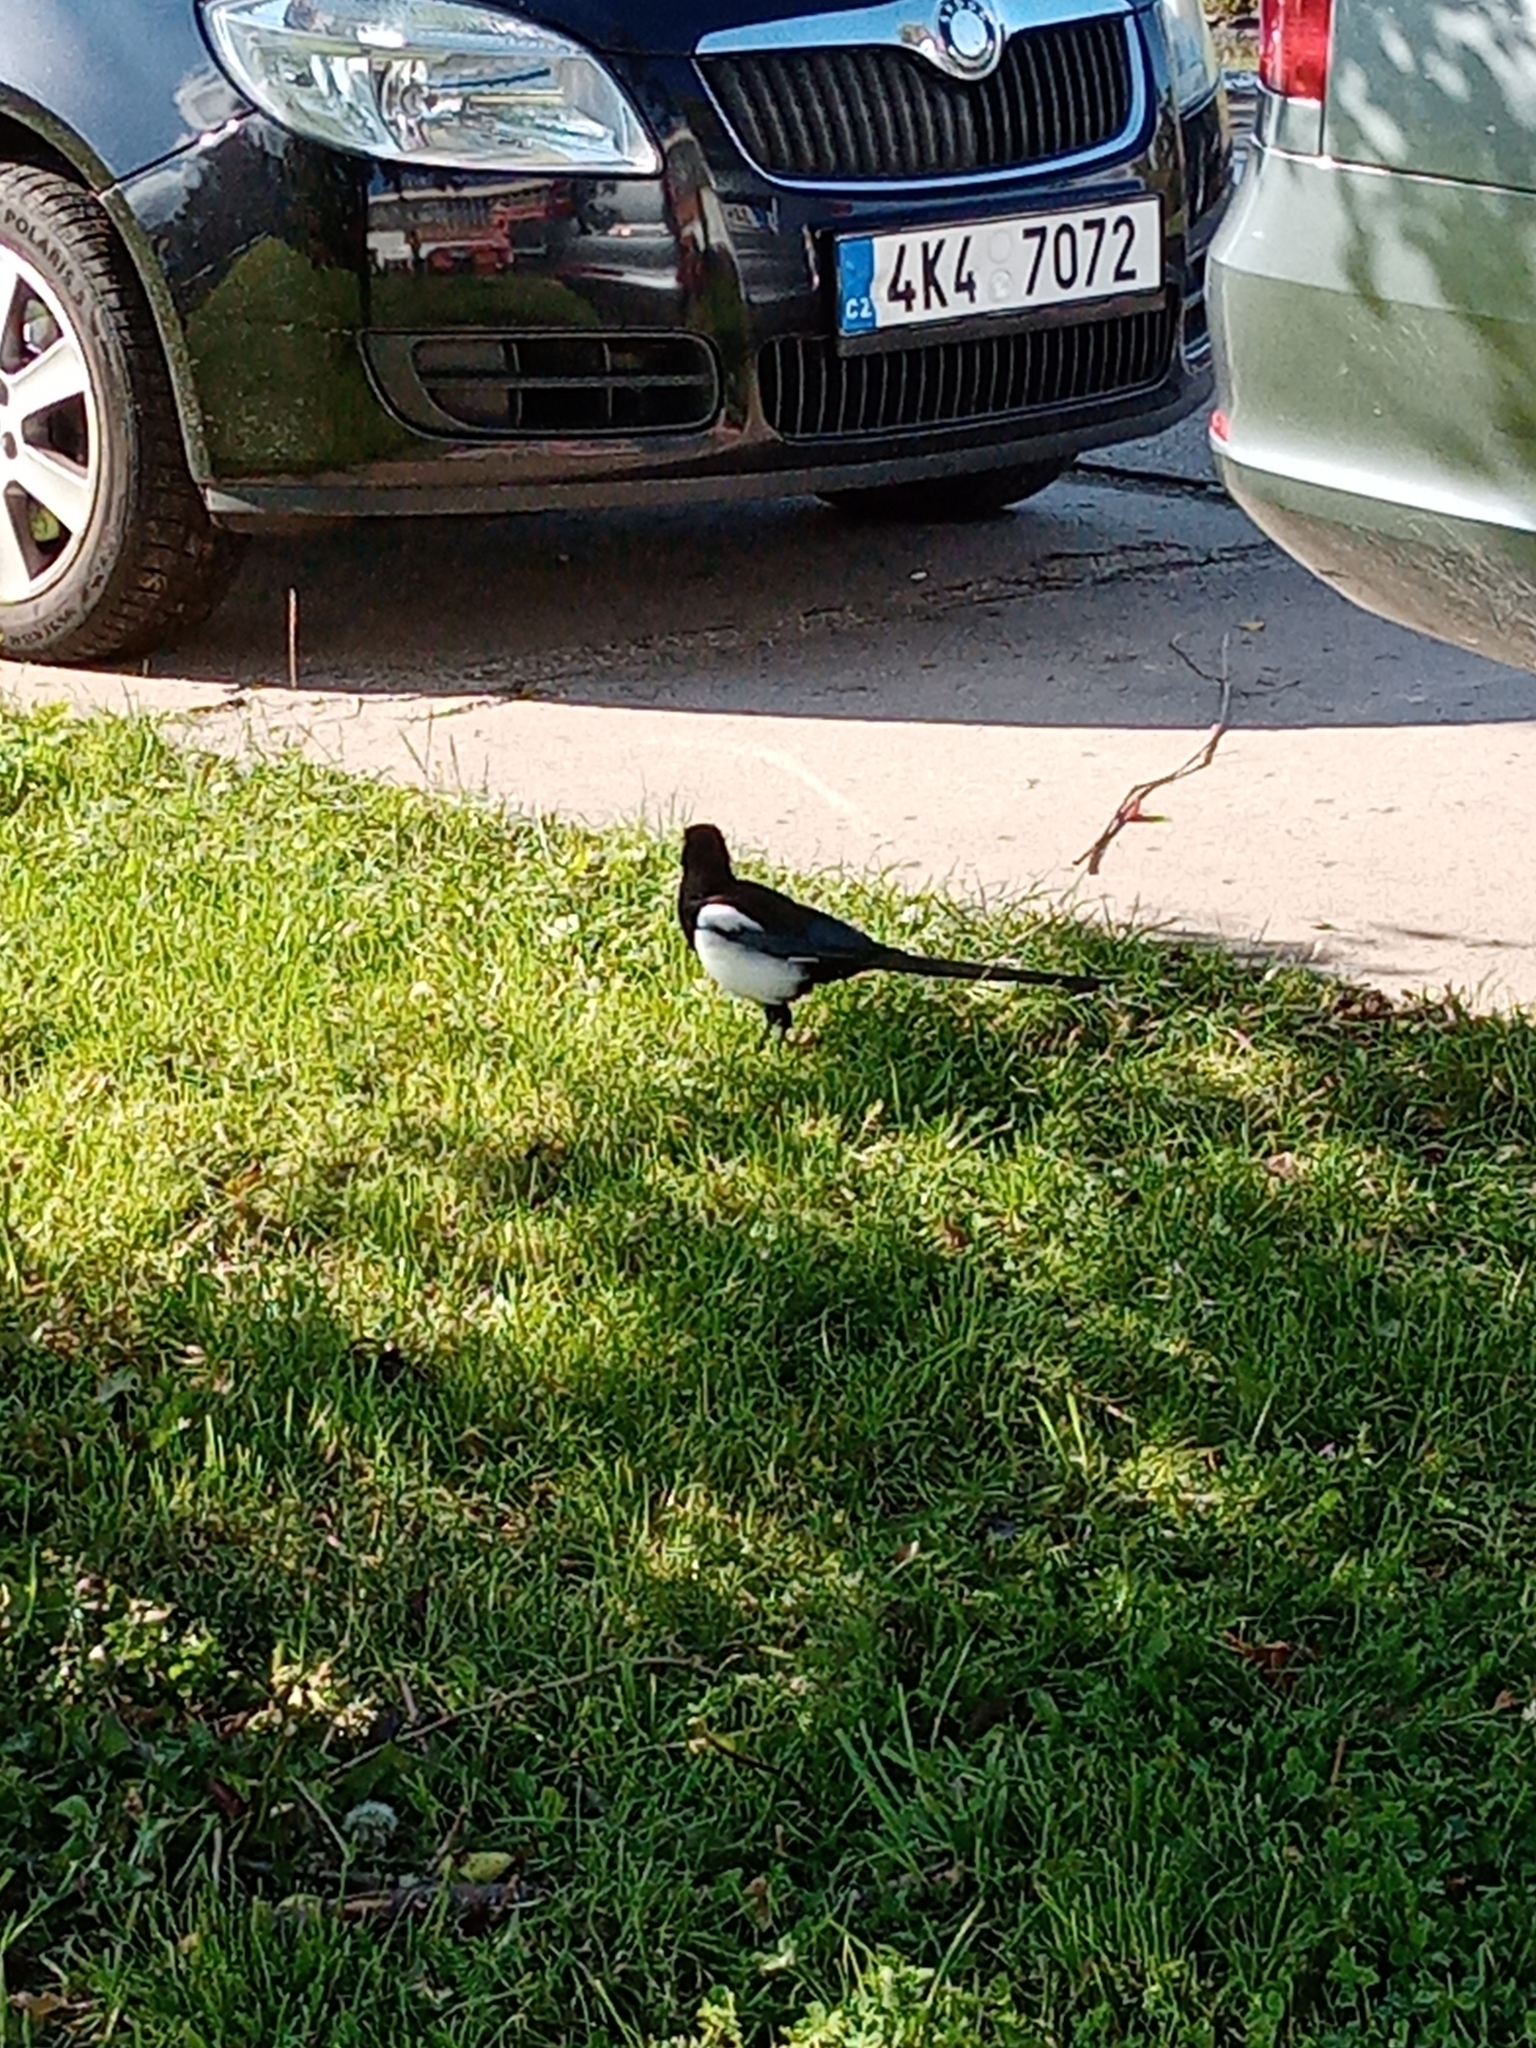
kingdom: Animalia
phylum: Chordata
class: Aves
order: Passeriformes
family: Corvidae
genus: Pica
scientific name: Pica pica
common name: Eurasian magpie
